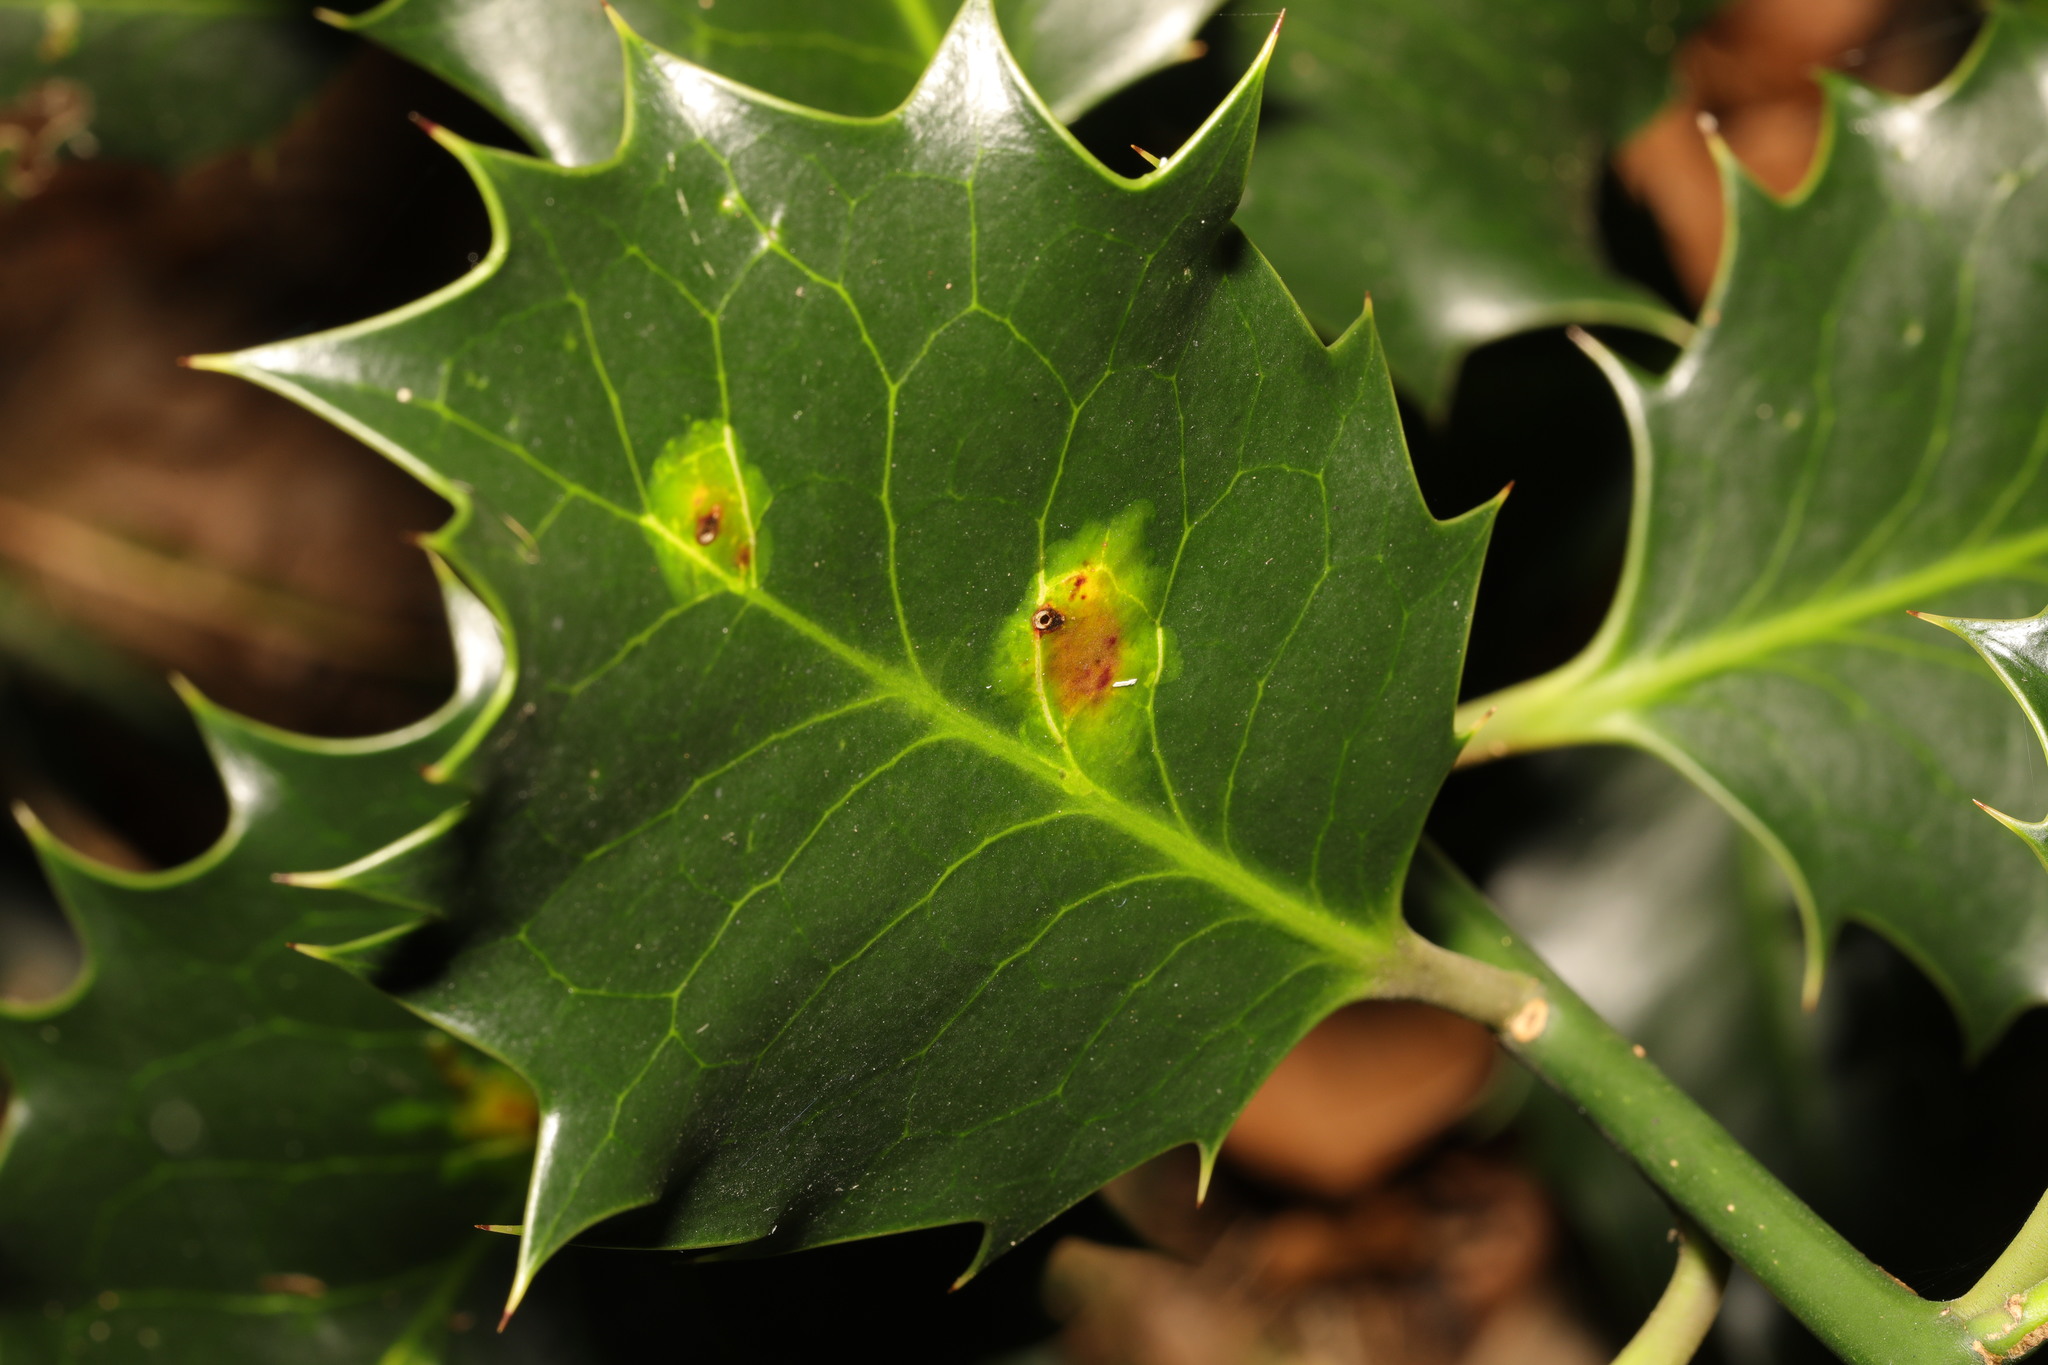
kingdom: Animalia
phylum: Arthropoda
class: Insecta
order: Diptera
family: Agromyzidae
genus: Phytomyza
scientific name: Phytomyza ilicis
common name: Holly leafminer
